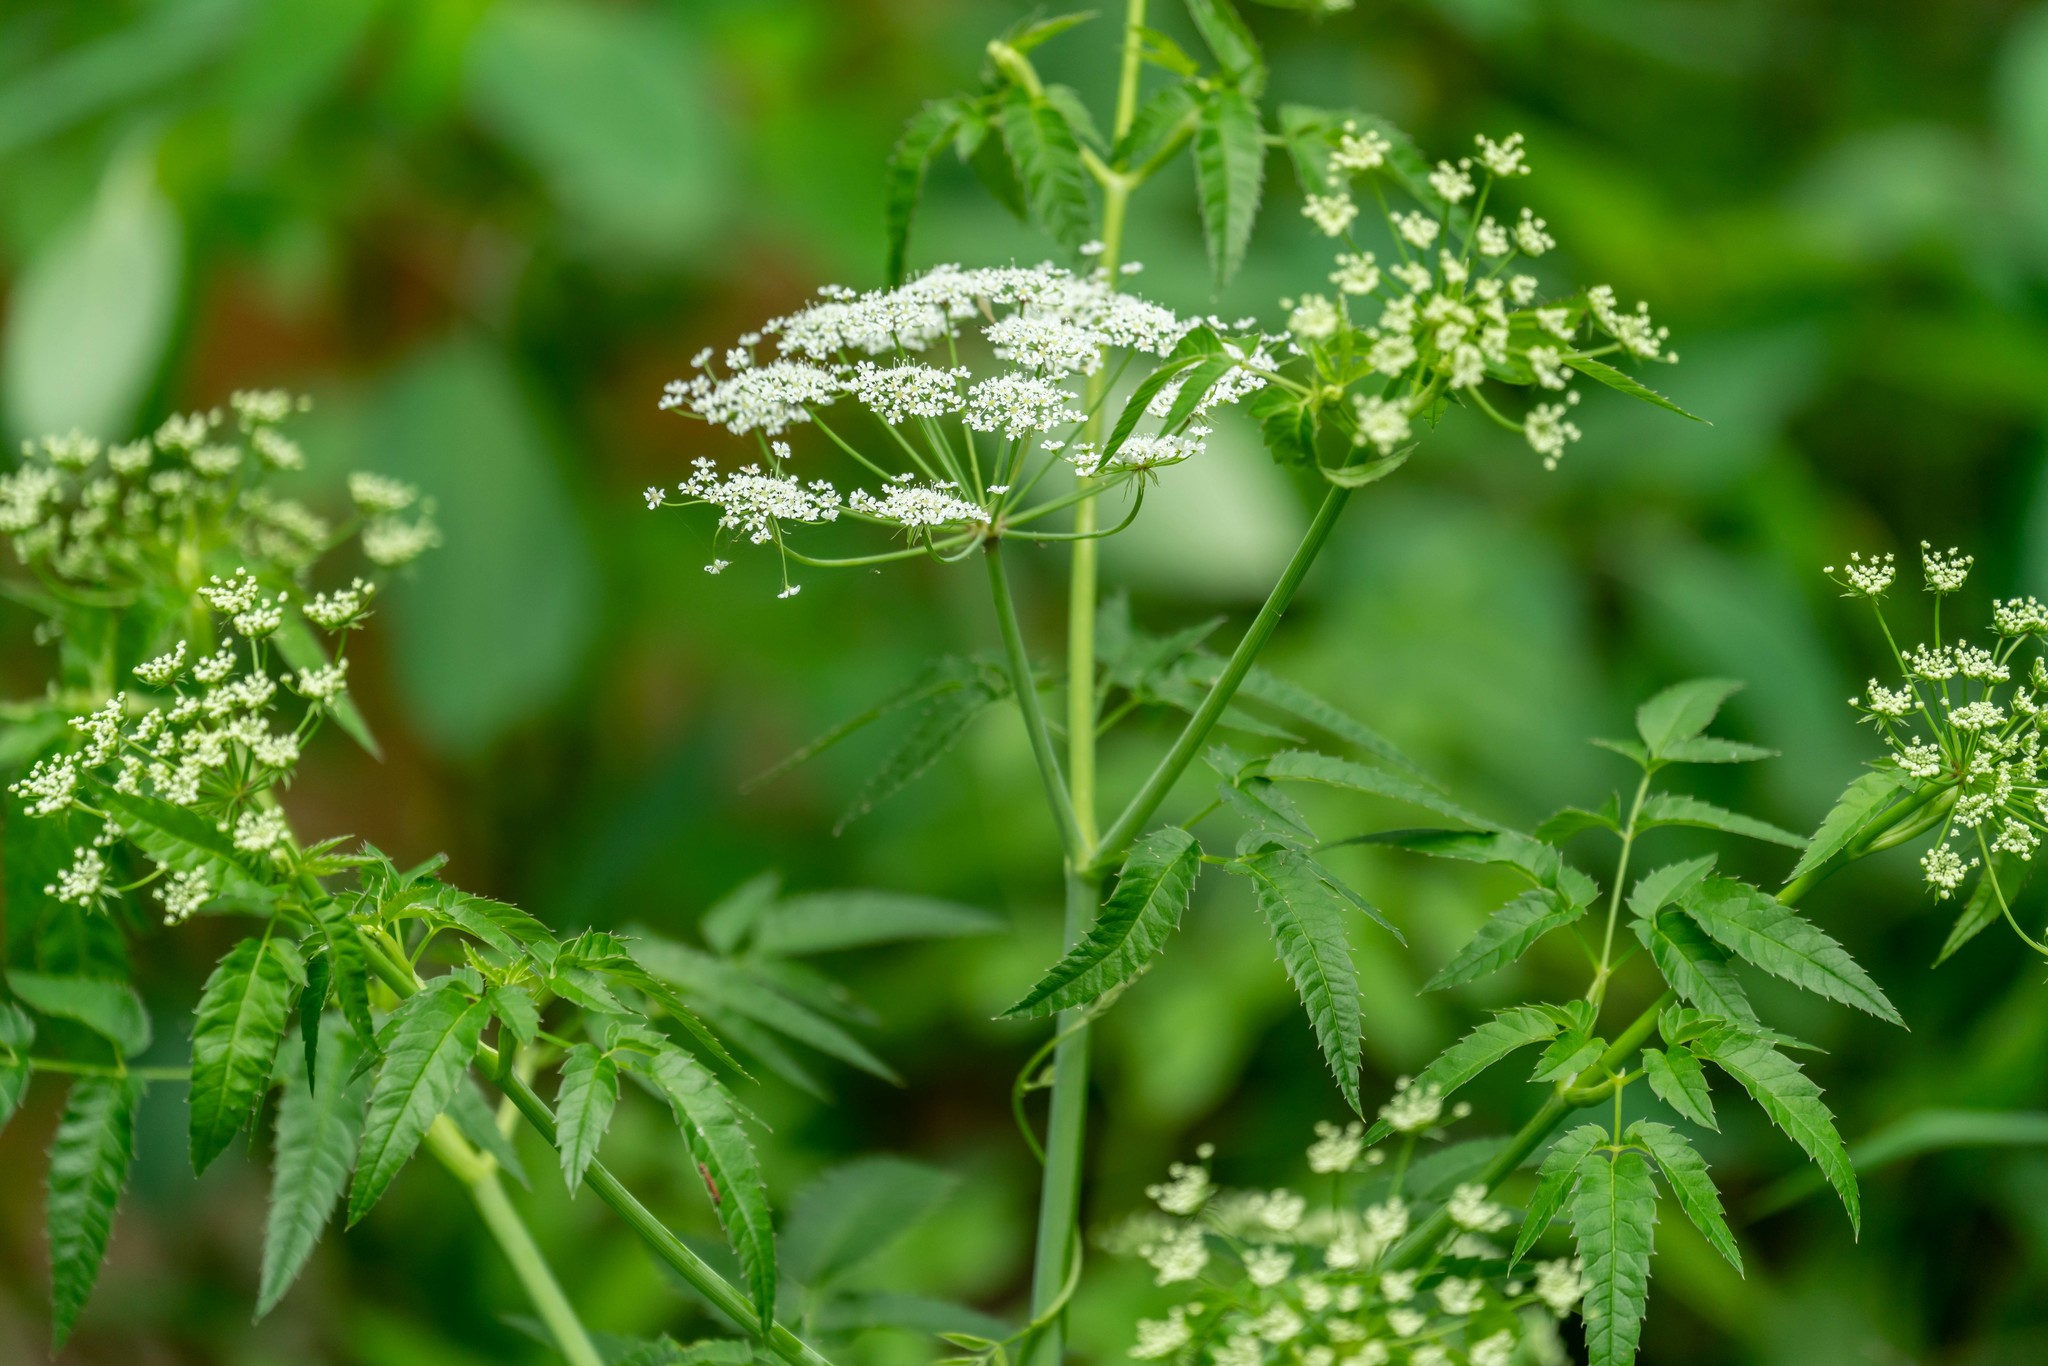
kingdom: Plantae
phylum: Tracheophyta
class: Magnoliopsida
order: Apiales
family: Apiaceae
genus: Cicuta
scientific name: Cicuta maculata
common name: Spotted cowbane
